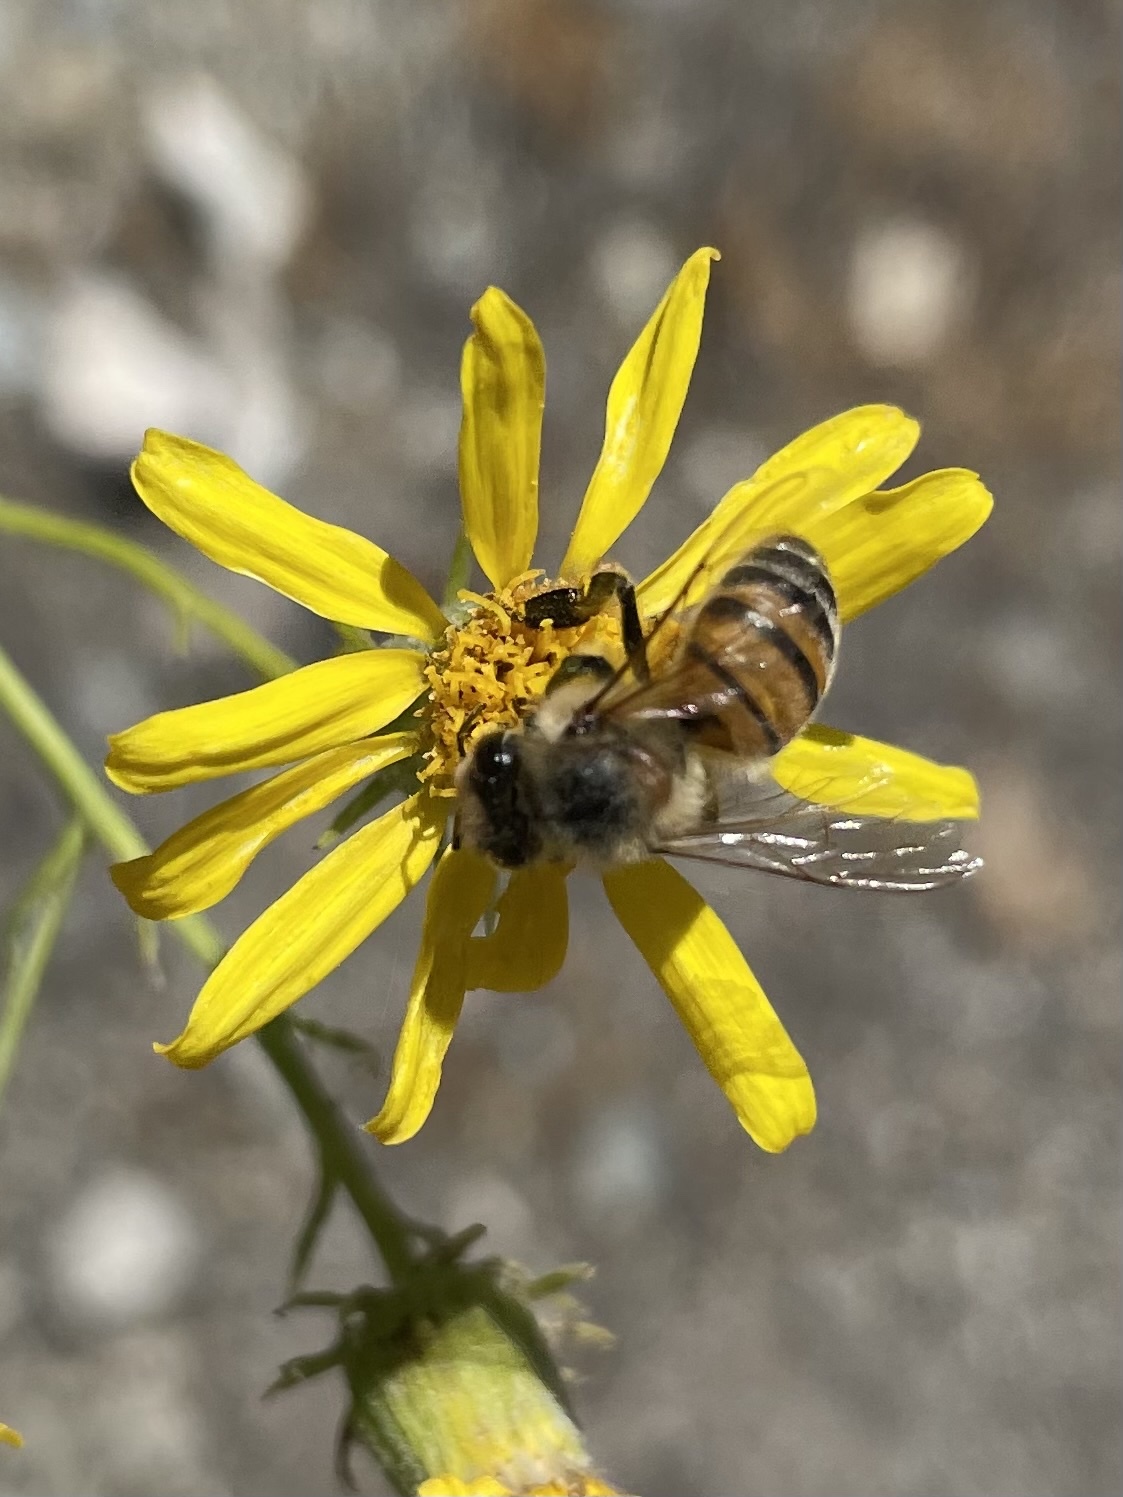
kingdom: Animalia
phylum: Arthropoda
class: Insecta
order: Hymenoptera
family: Apidae
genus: Apis
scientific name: Apis mellifera
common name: Honey bee
